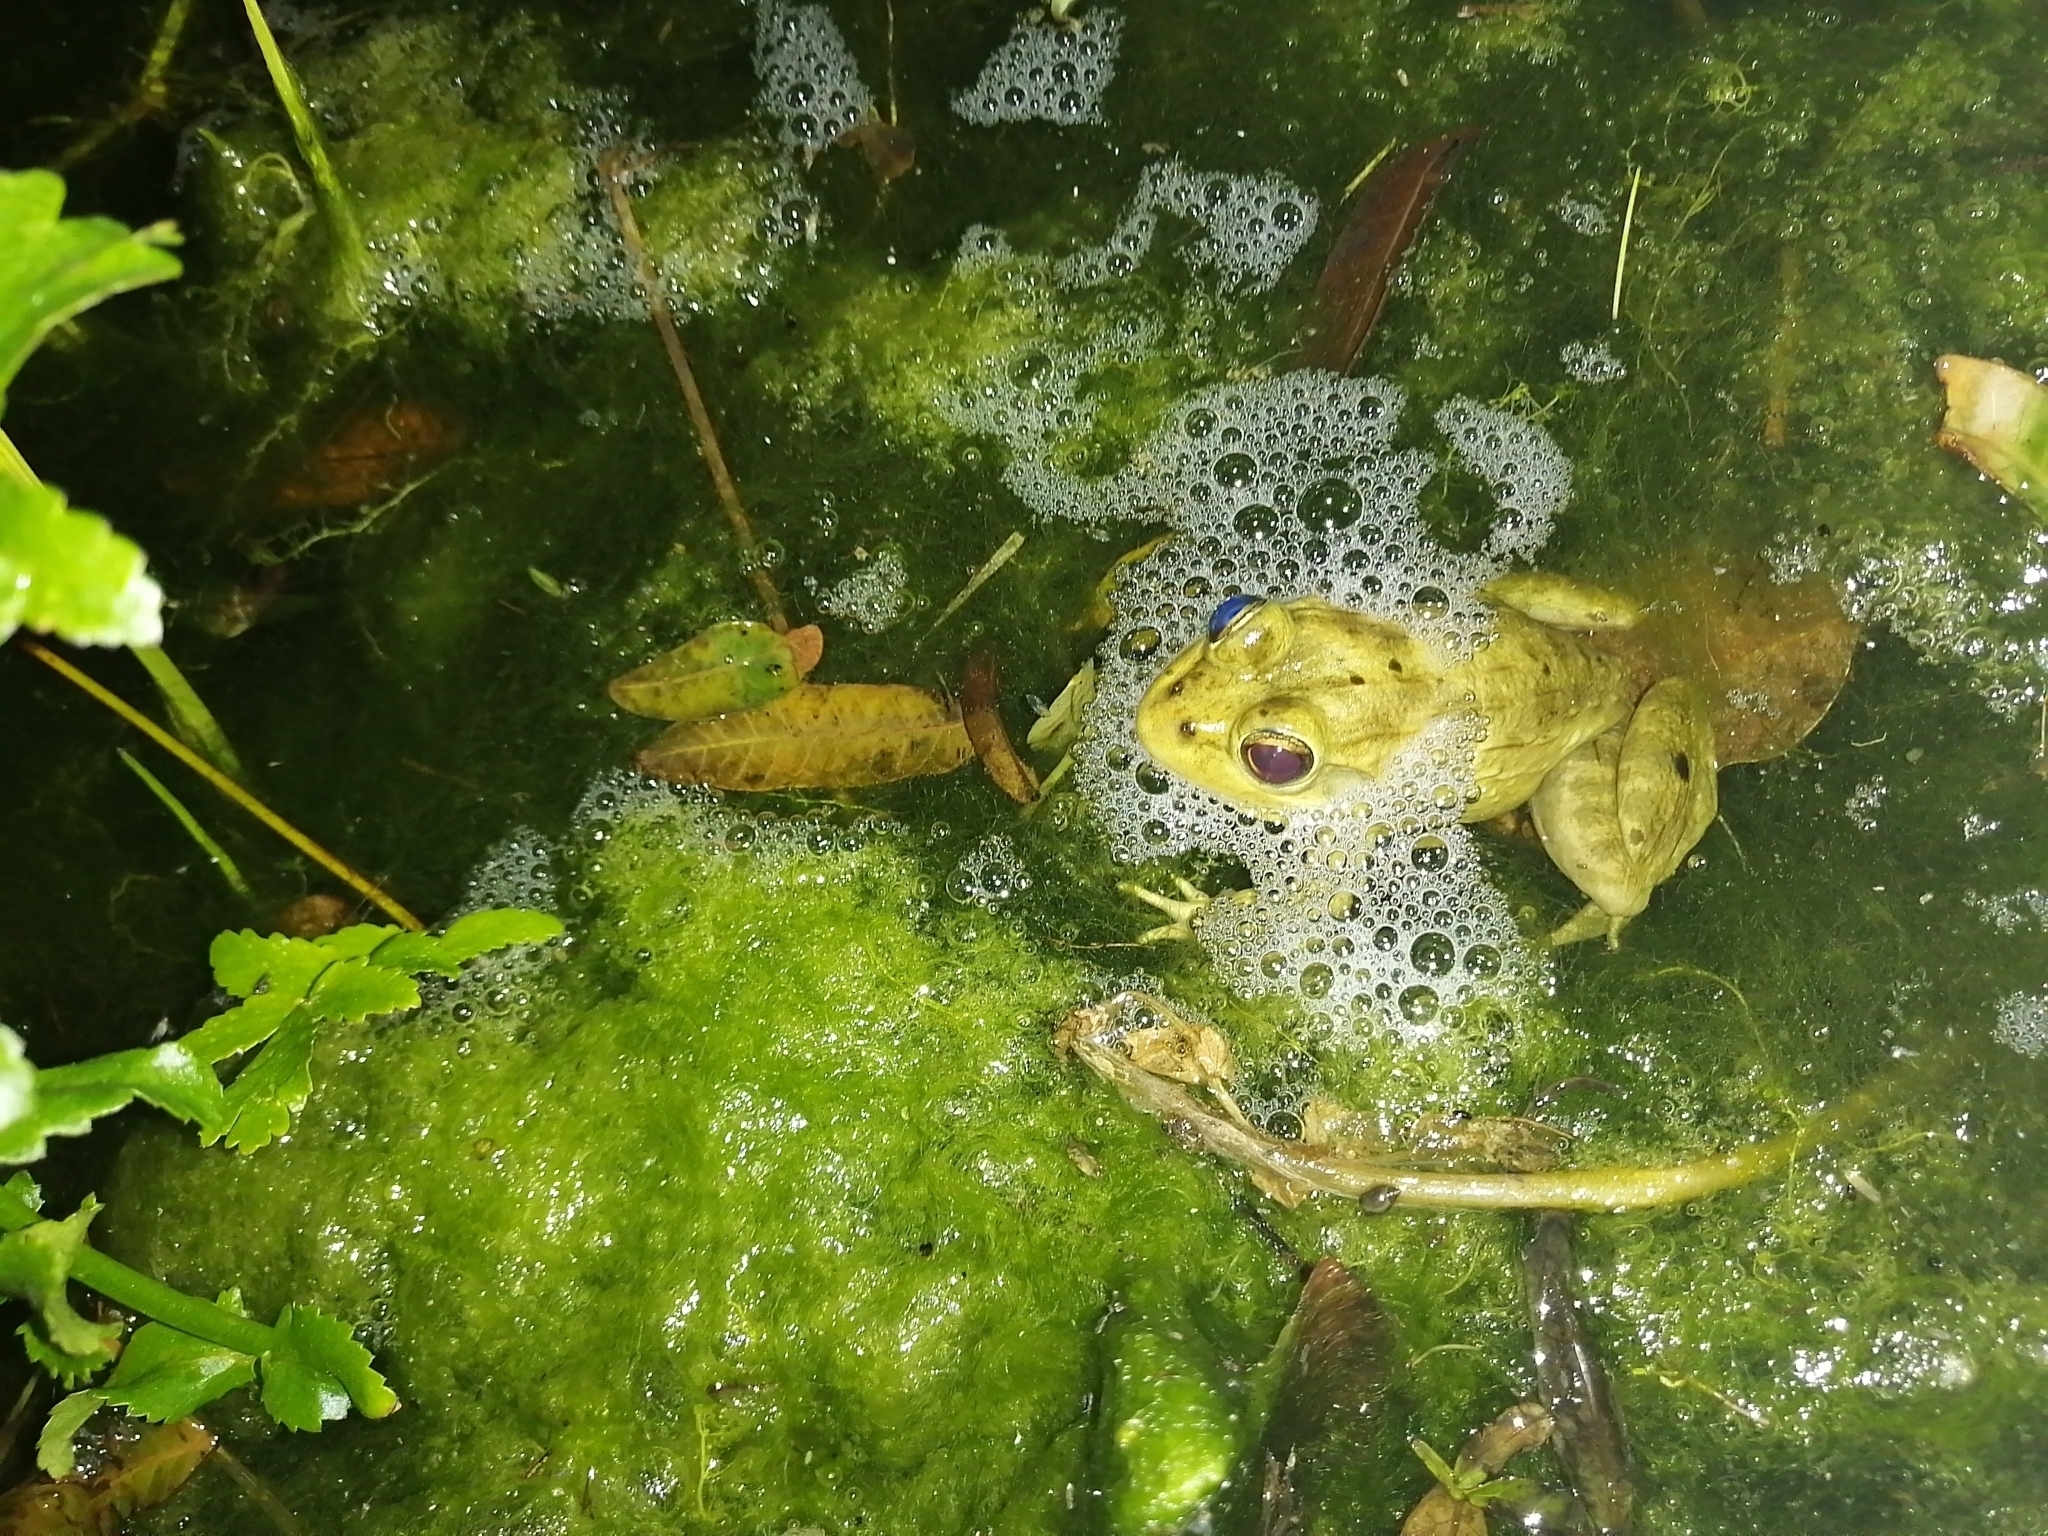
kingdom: Animalia
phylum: Chordata
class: Amphibia
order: Anura
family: Pyxicephalidae
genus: Amietia
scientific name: Amietia fuscigula
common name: Cape rana
